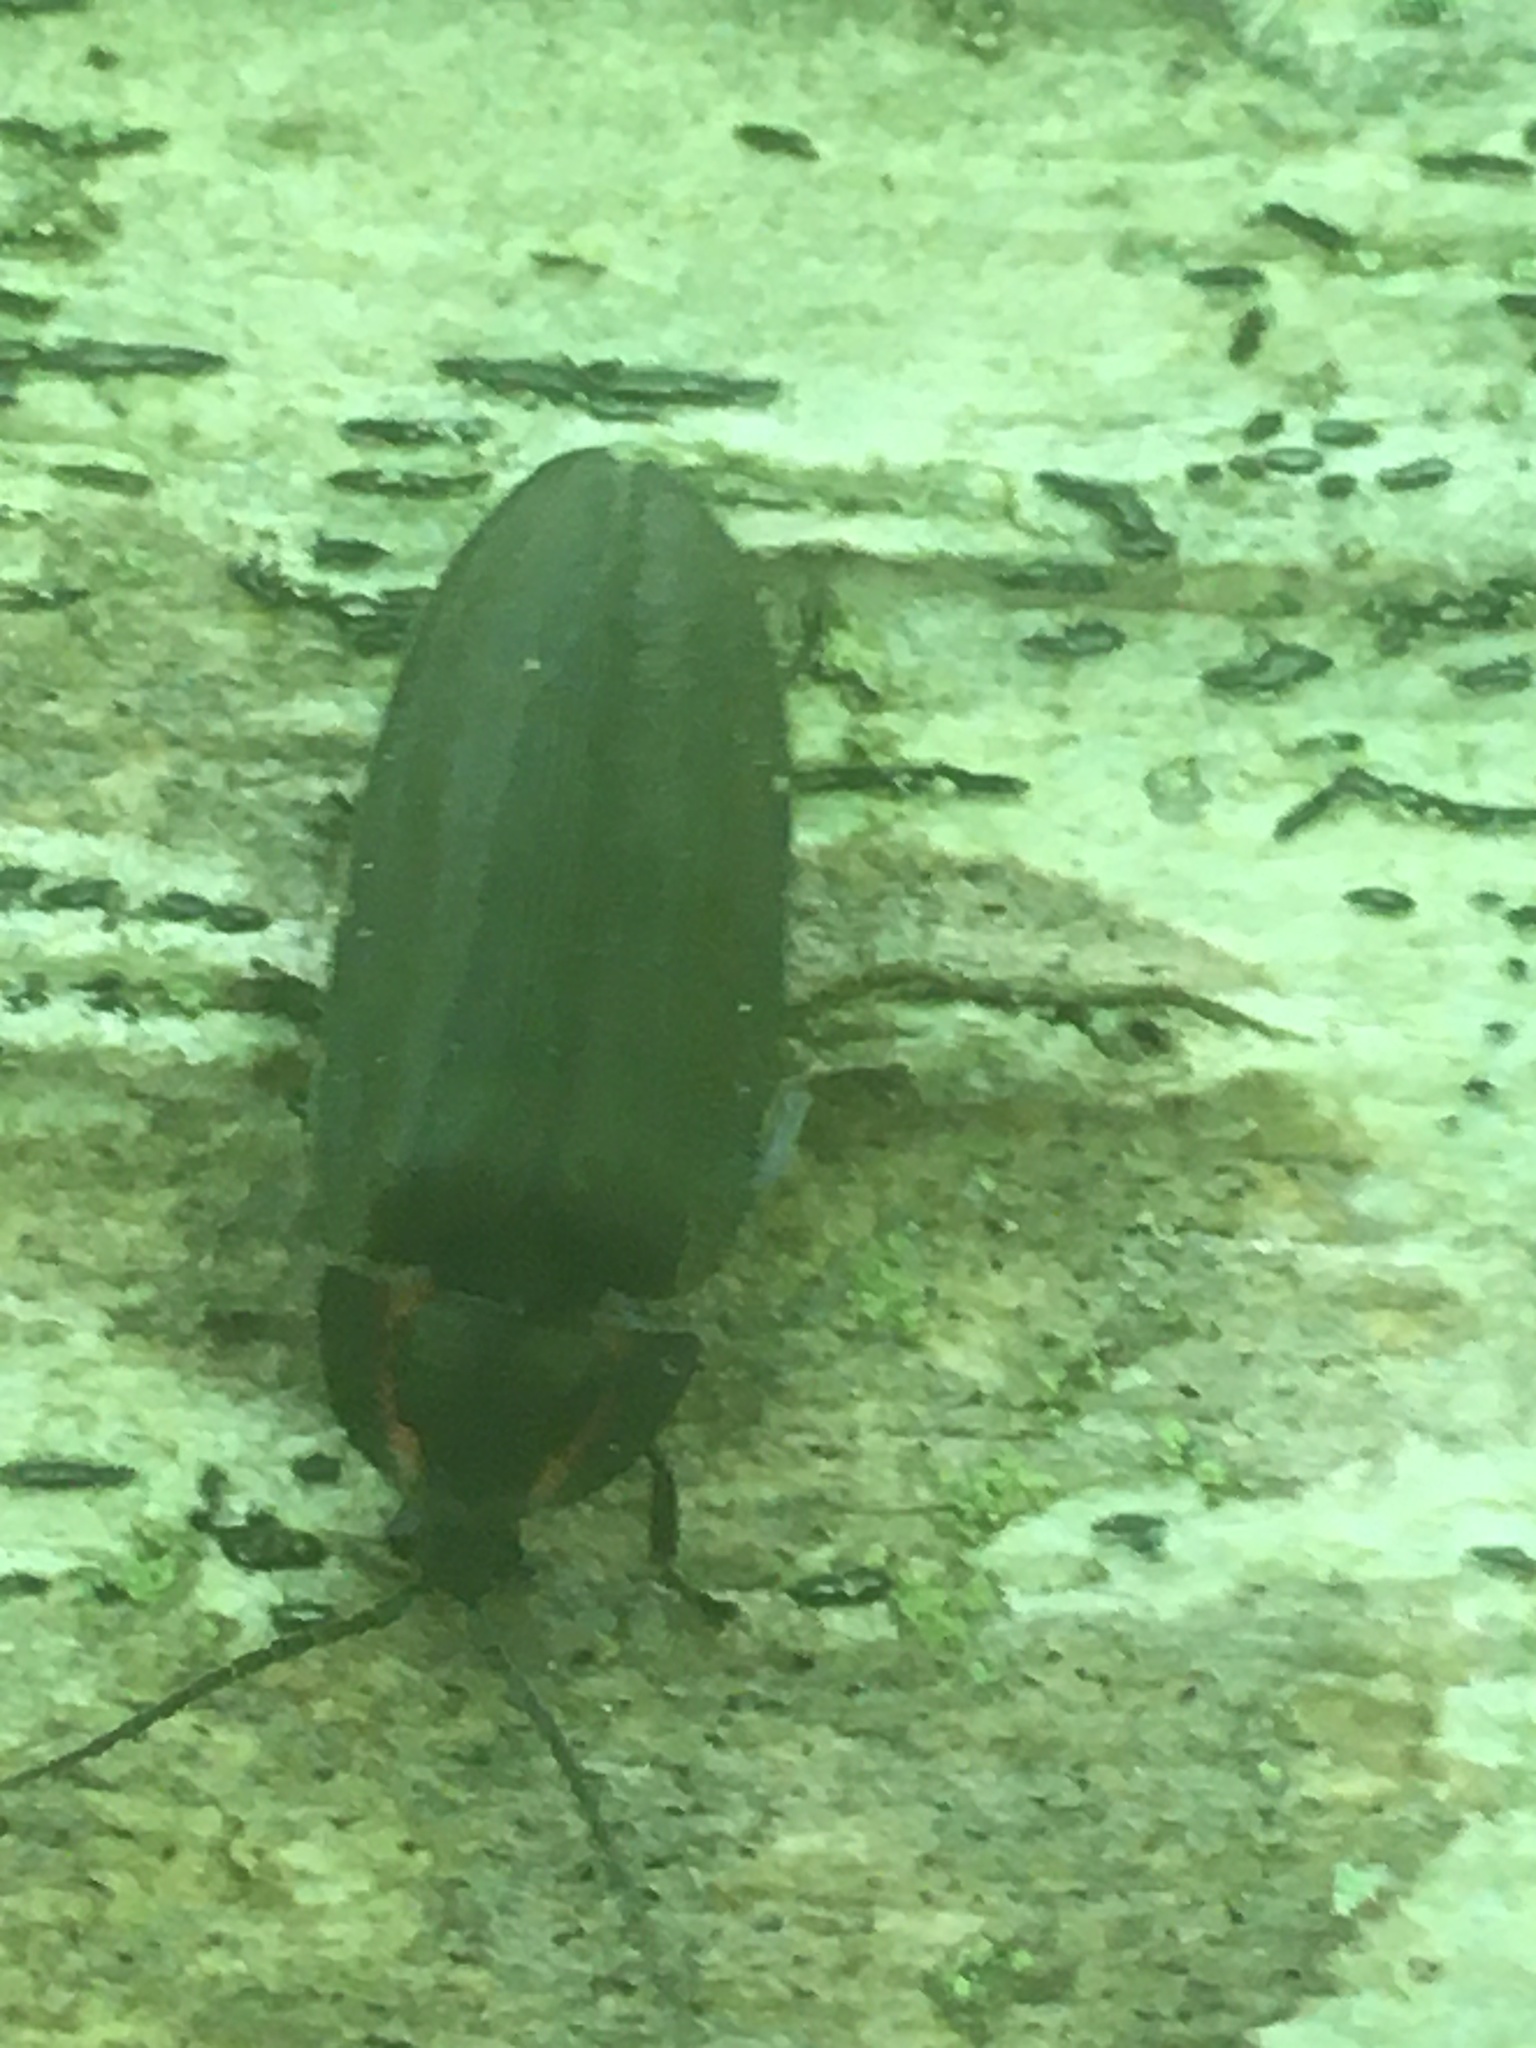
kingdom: Animalia
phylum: Arthropoda
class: Insecta
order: Coleoptera
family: Lampyridae
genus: Photinus
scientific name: Photinus corrusca
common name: Winter firefly
